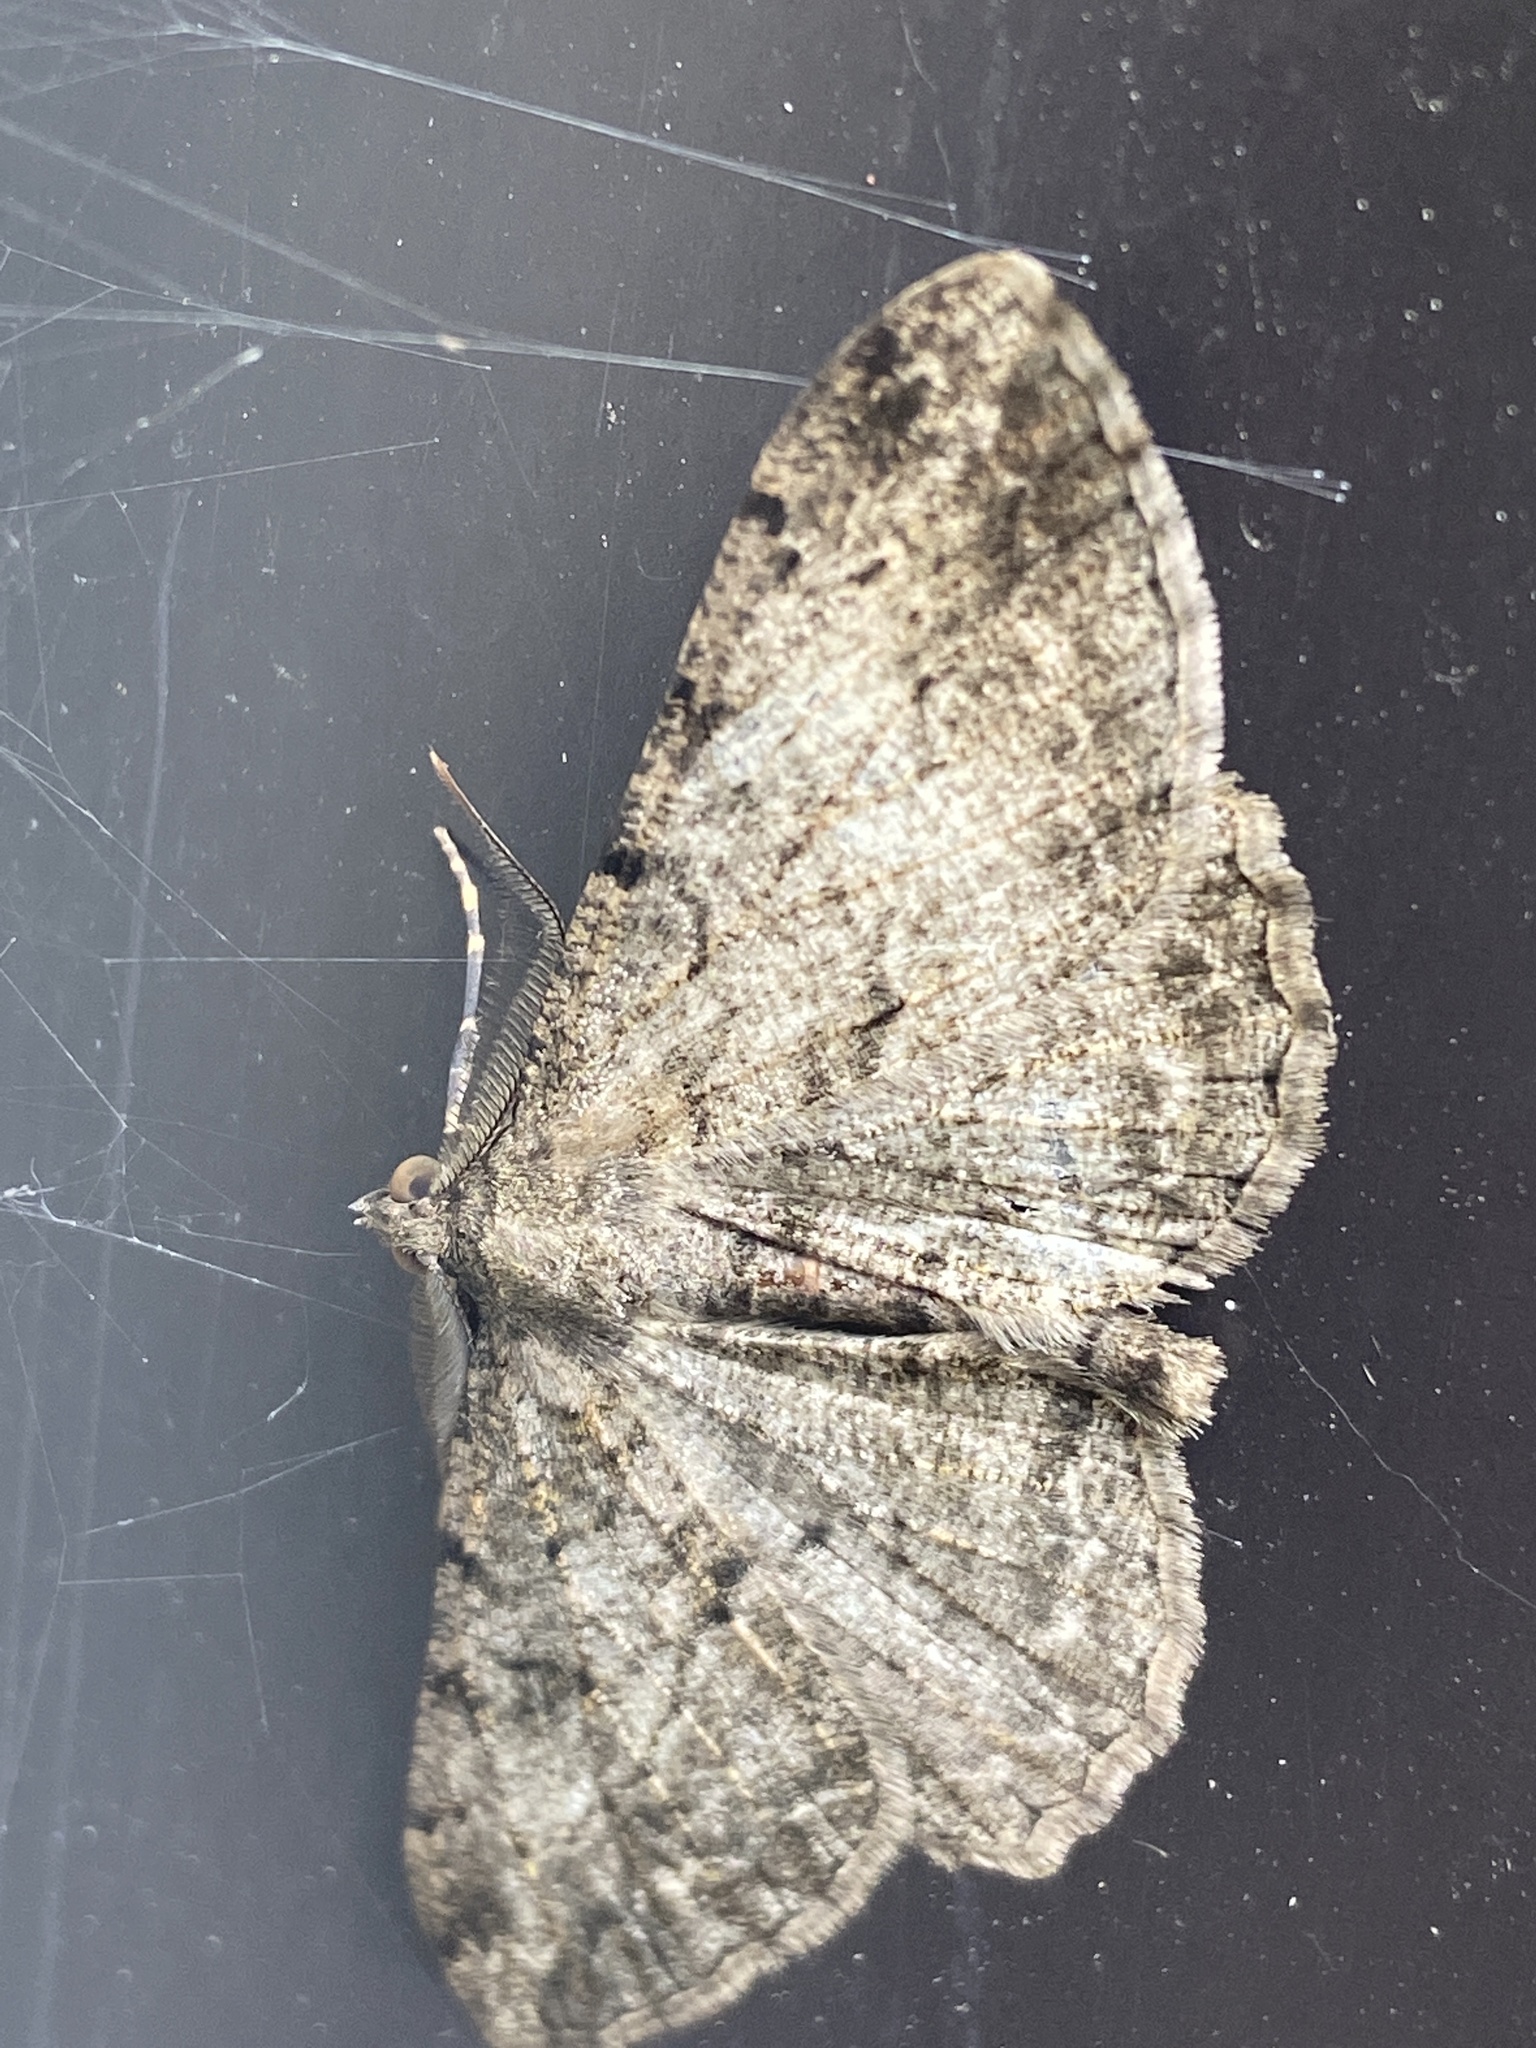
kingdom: Animalia
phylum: Arthropoda
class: Insecta
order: Lepidoptera
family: Geometridae
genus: Peribatodes
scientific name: Peribatodes rhomboidaria
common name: Willow beauty
